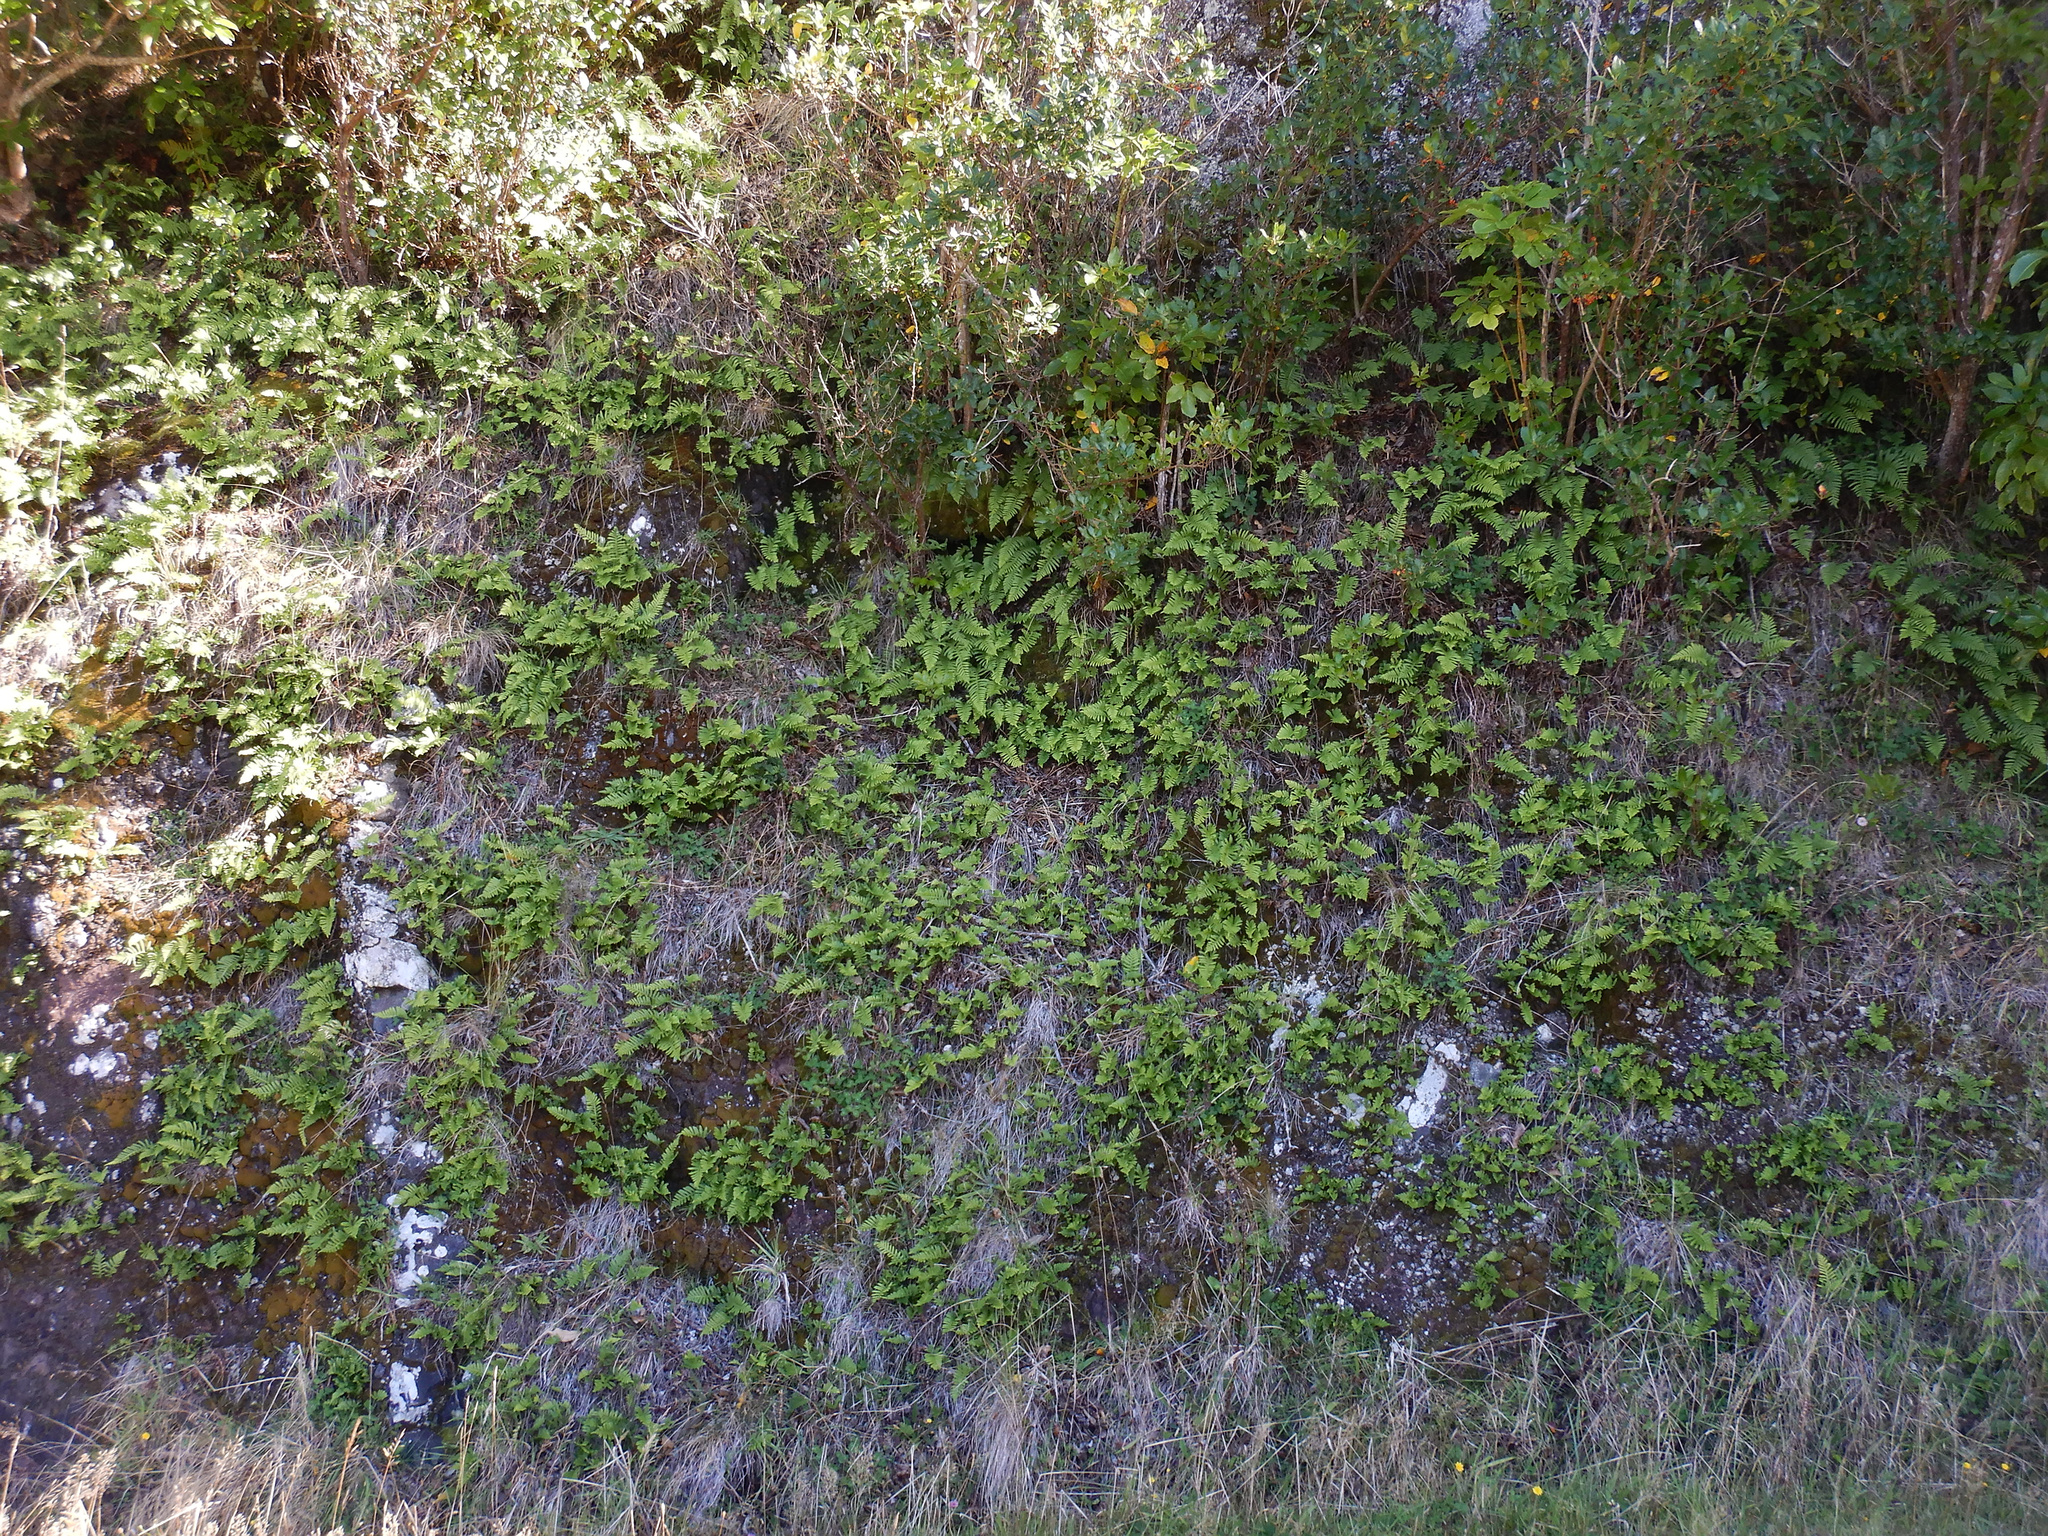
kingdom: Plantae
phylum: Tracheophyta
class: Polypodiopsida
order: Polypodiales
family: Polypodiaceae
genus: Polypodium
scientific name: Polypodium vulgare
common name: Common polypody
